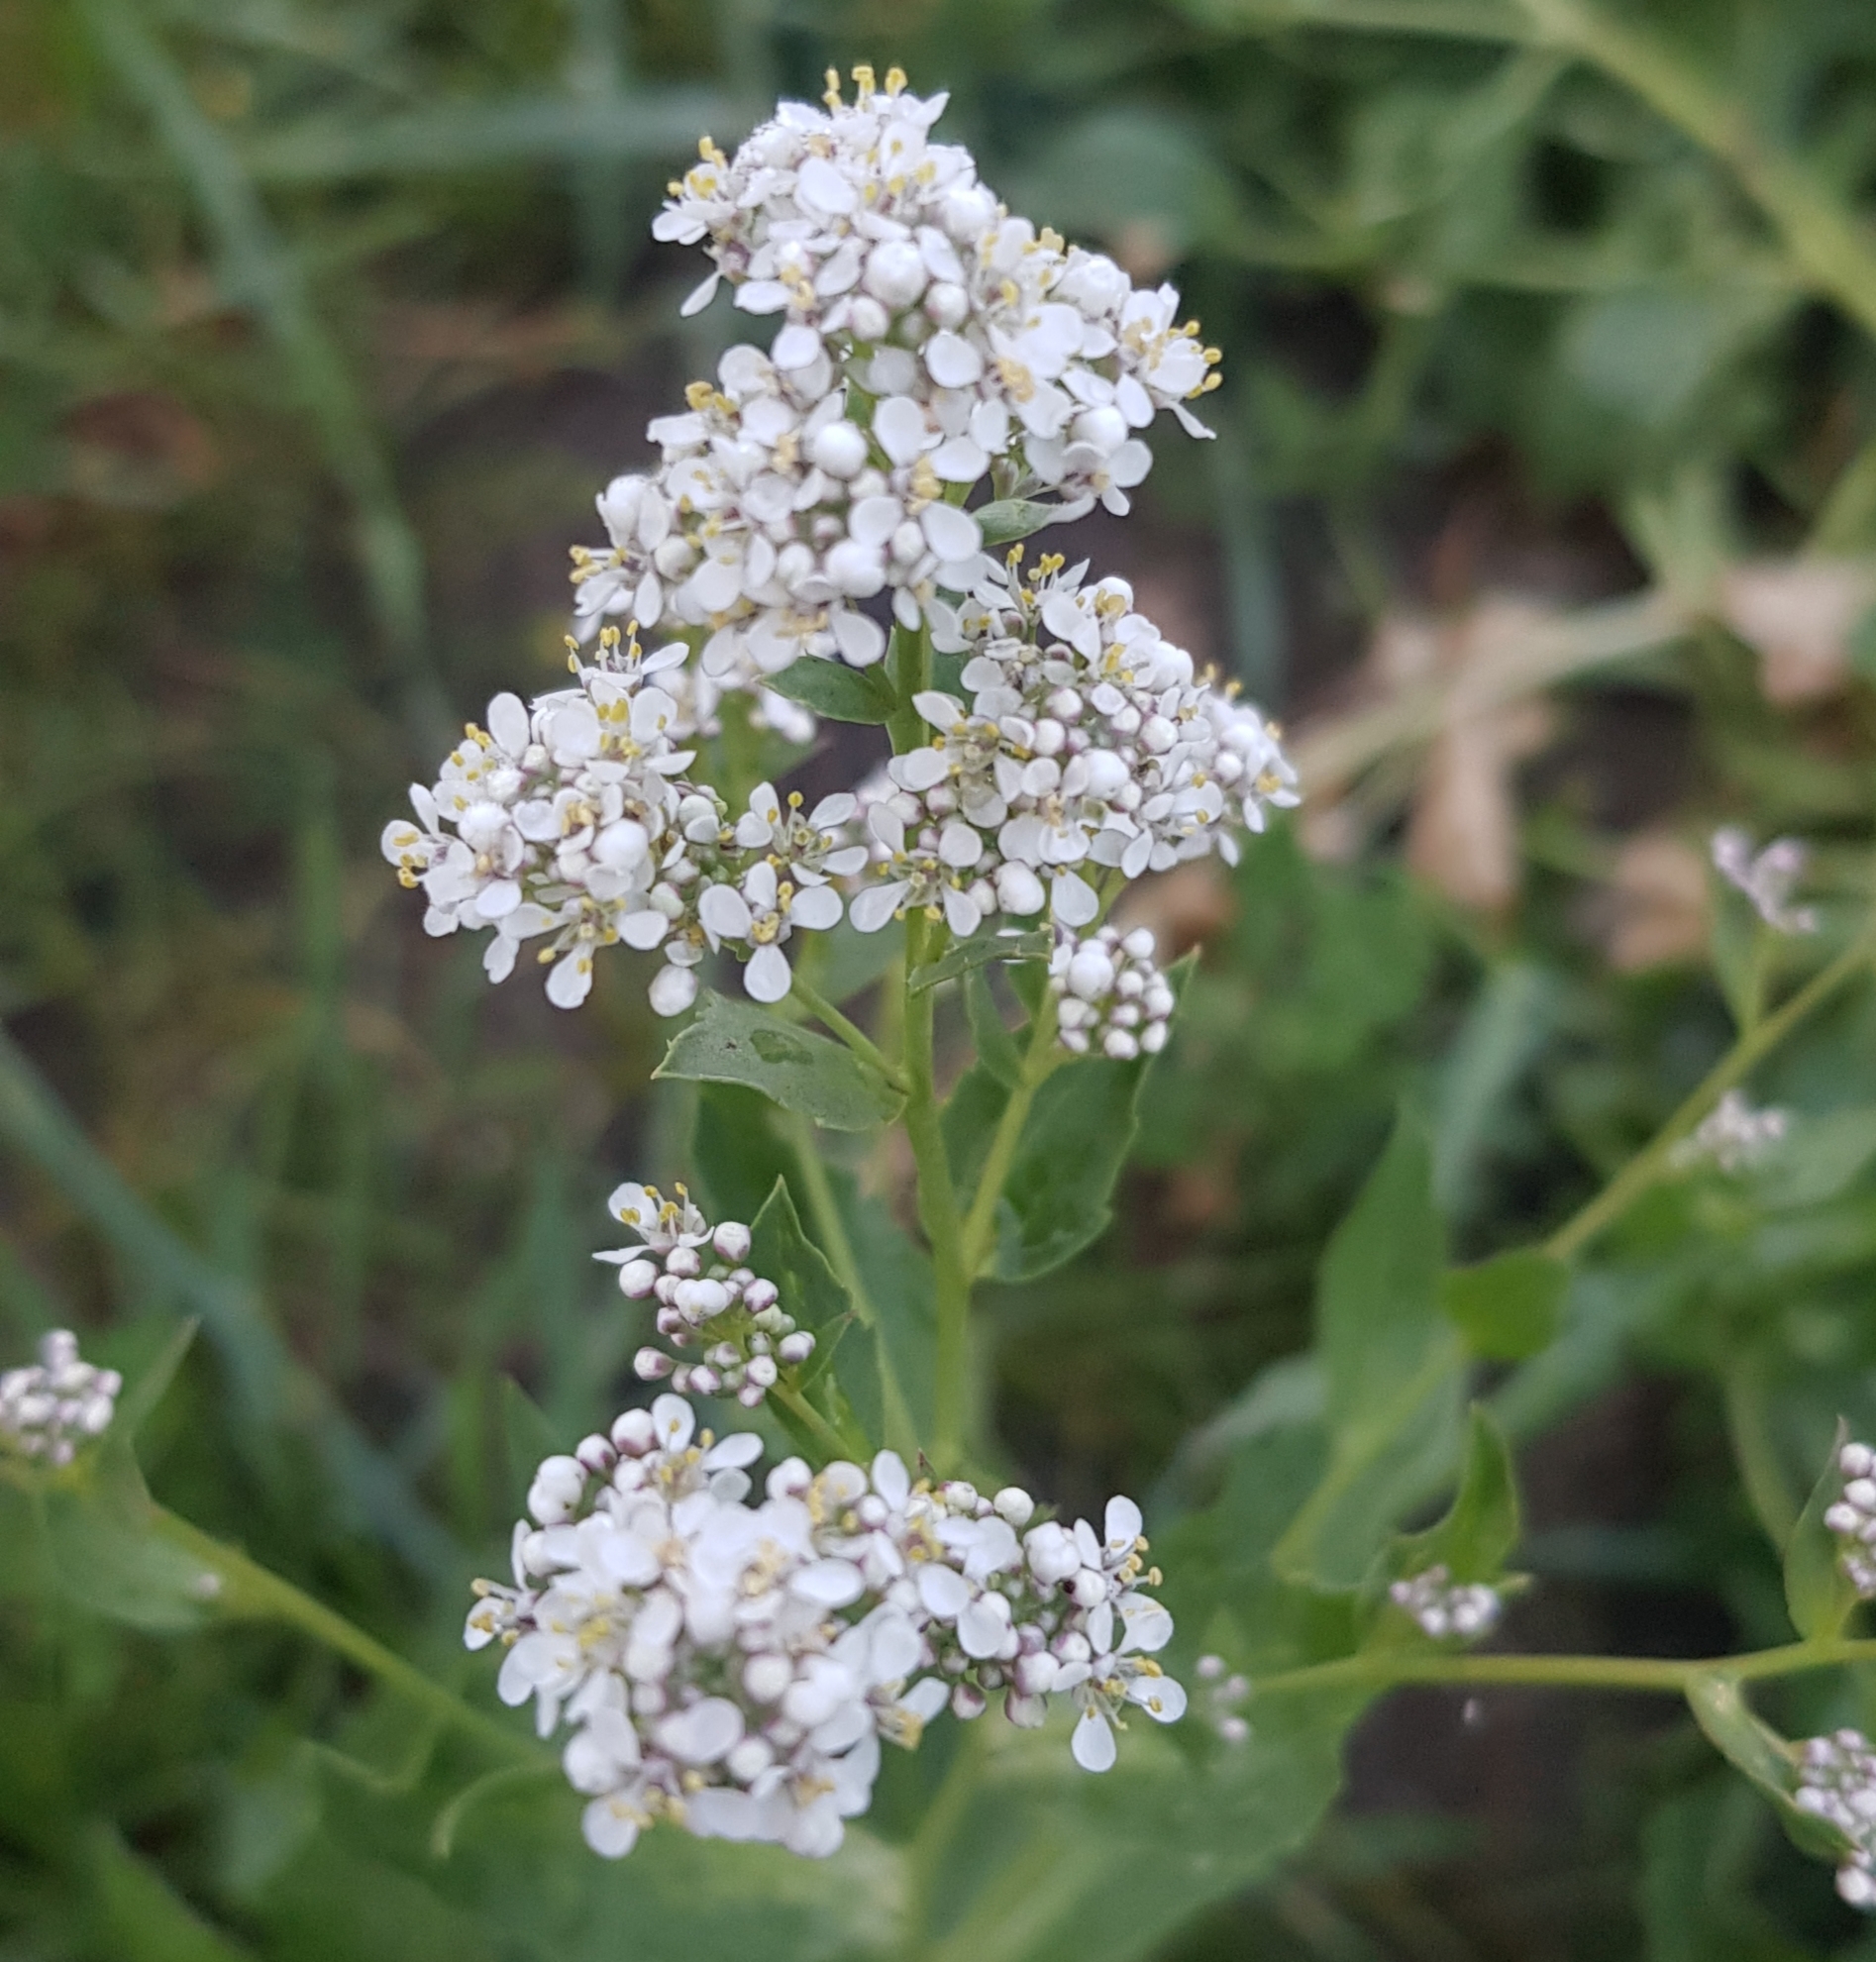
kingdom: Plantae
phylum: Tracheophyta
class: Magnoliopsida
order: Brassicales
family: Brassicaceae
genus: Lepidium
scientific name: Lepidium latifolium
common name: Dittander
